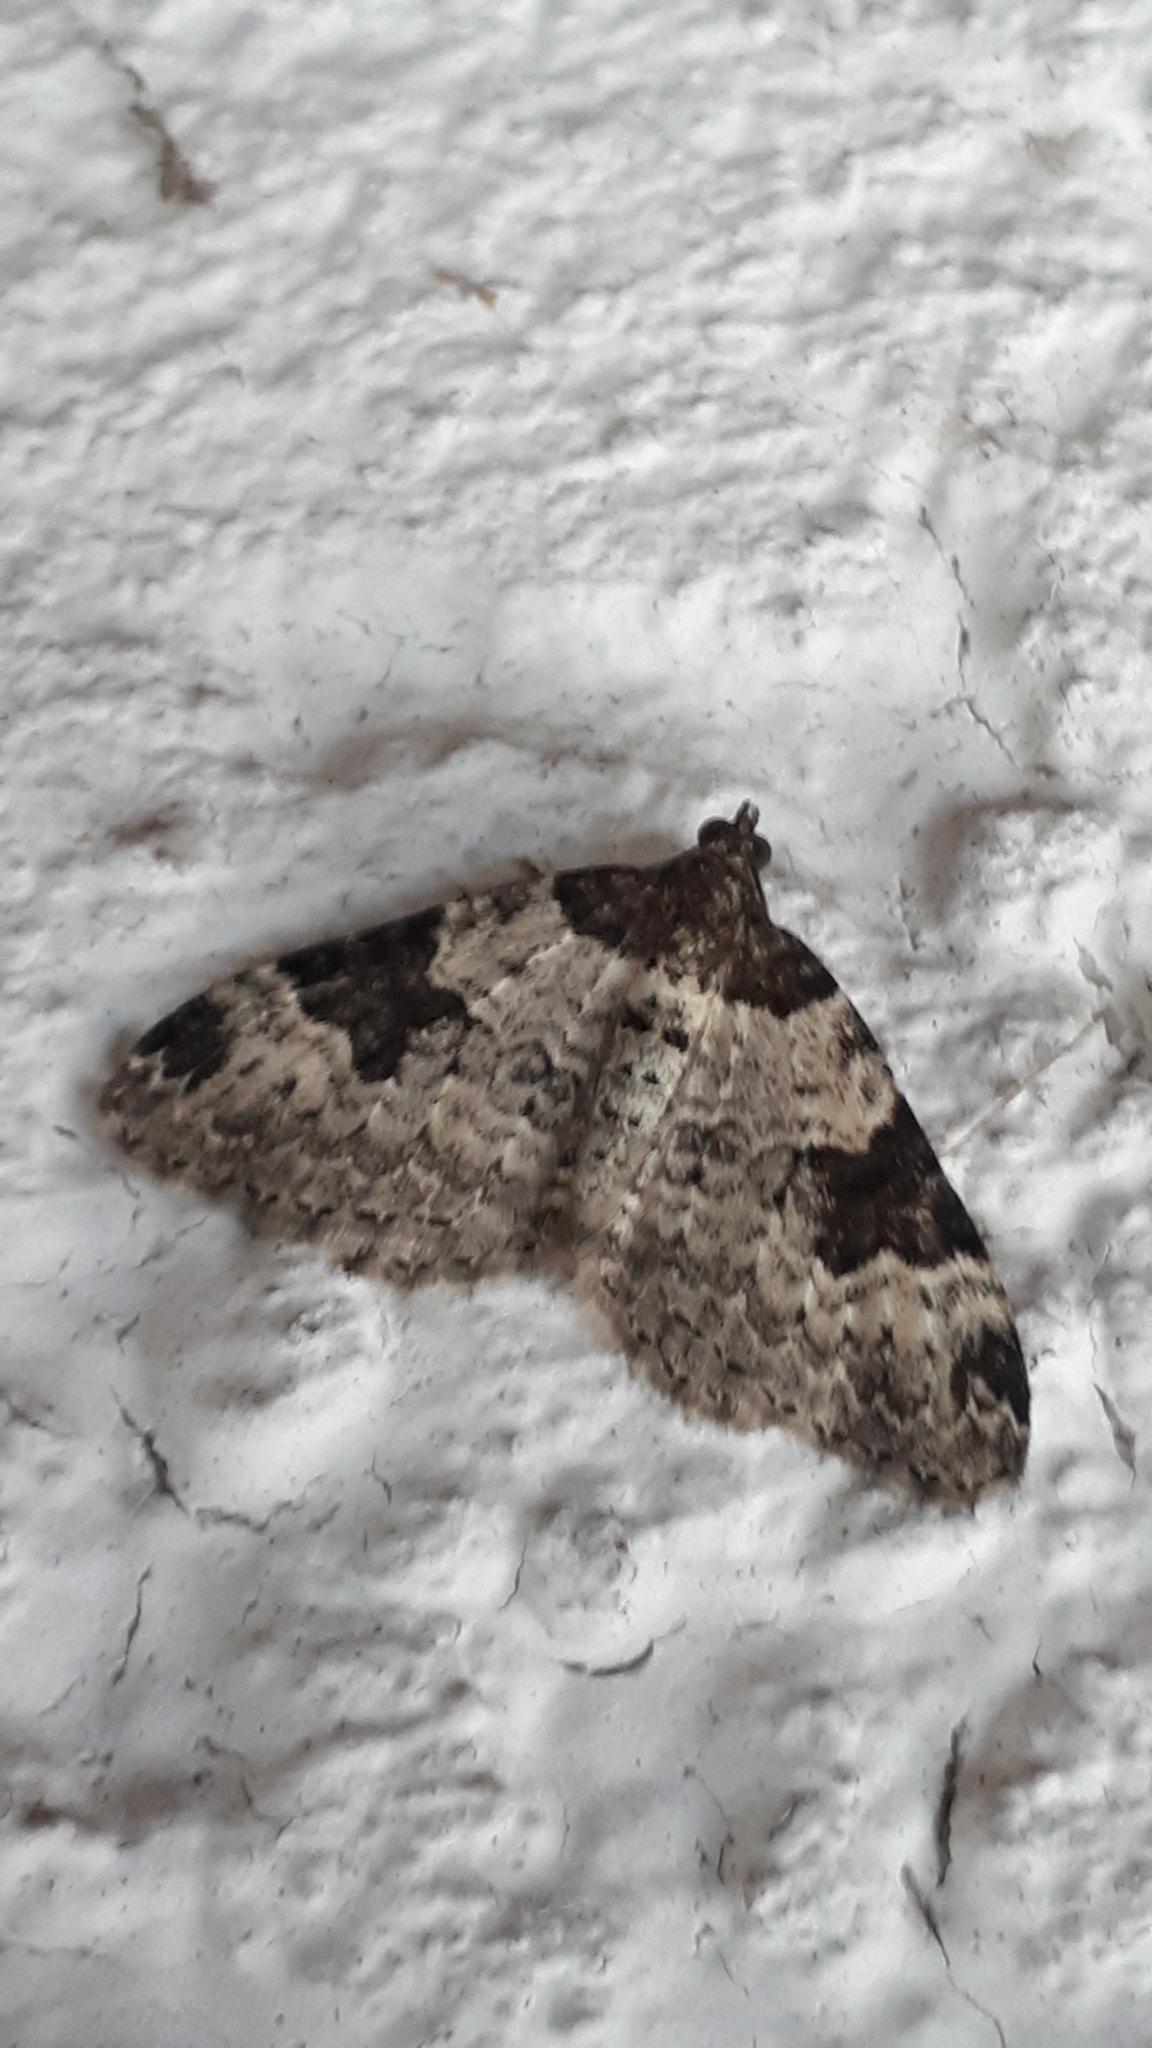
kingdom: Animalia
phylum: Arthropoda
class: Insecta
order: Lepidoptera
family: Geometridae
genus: Xanthorhoe
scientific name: Xanthorhoe fluctuata
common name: Garden carpet
